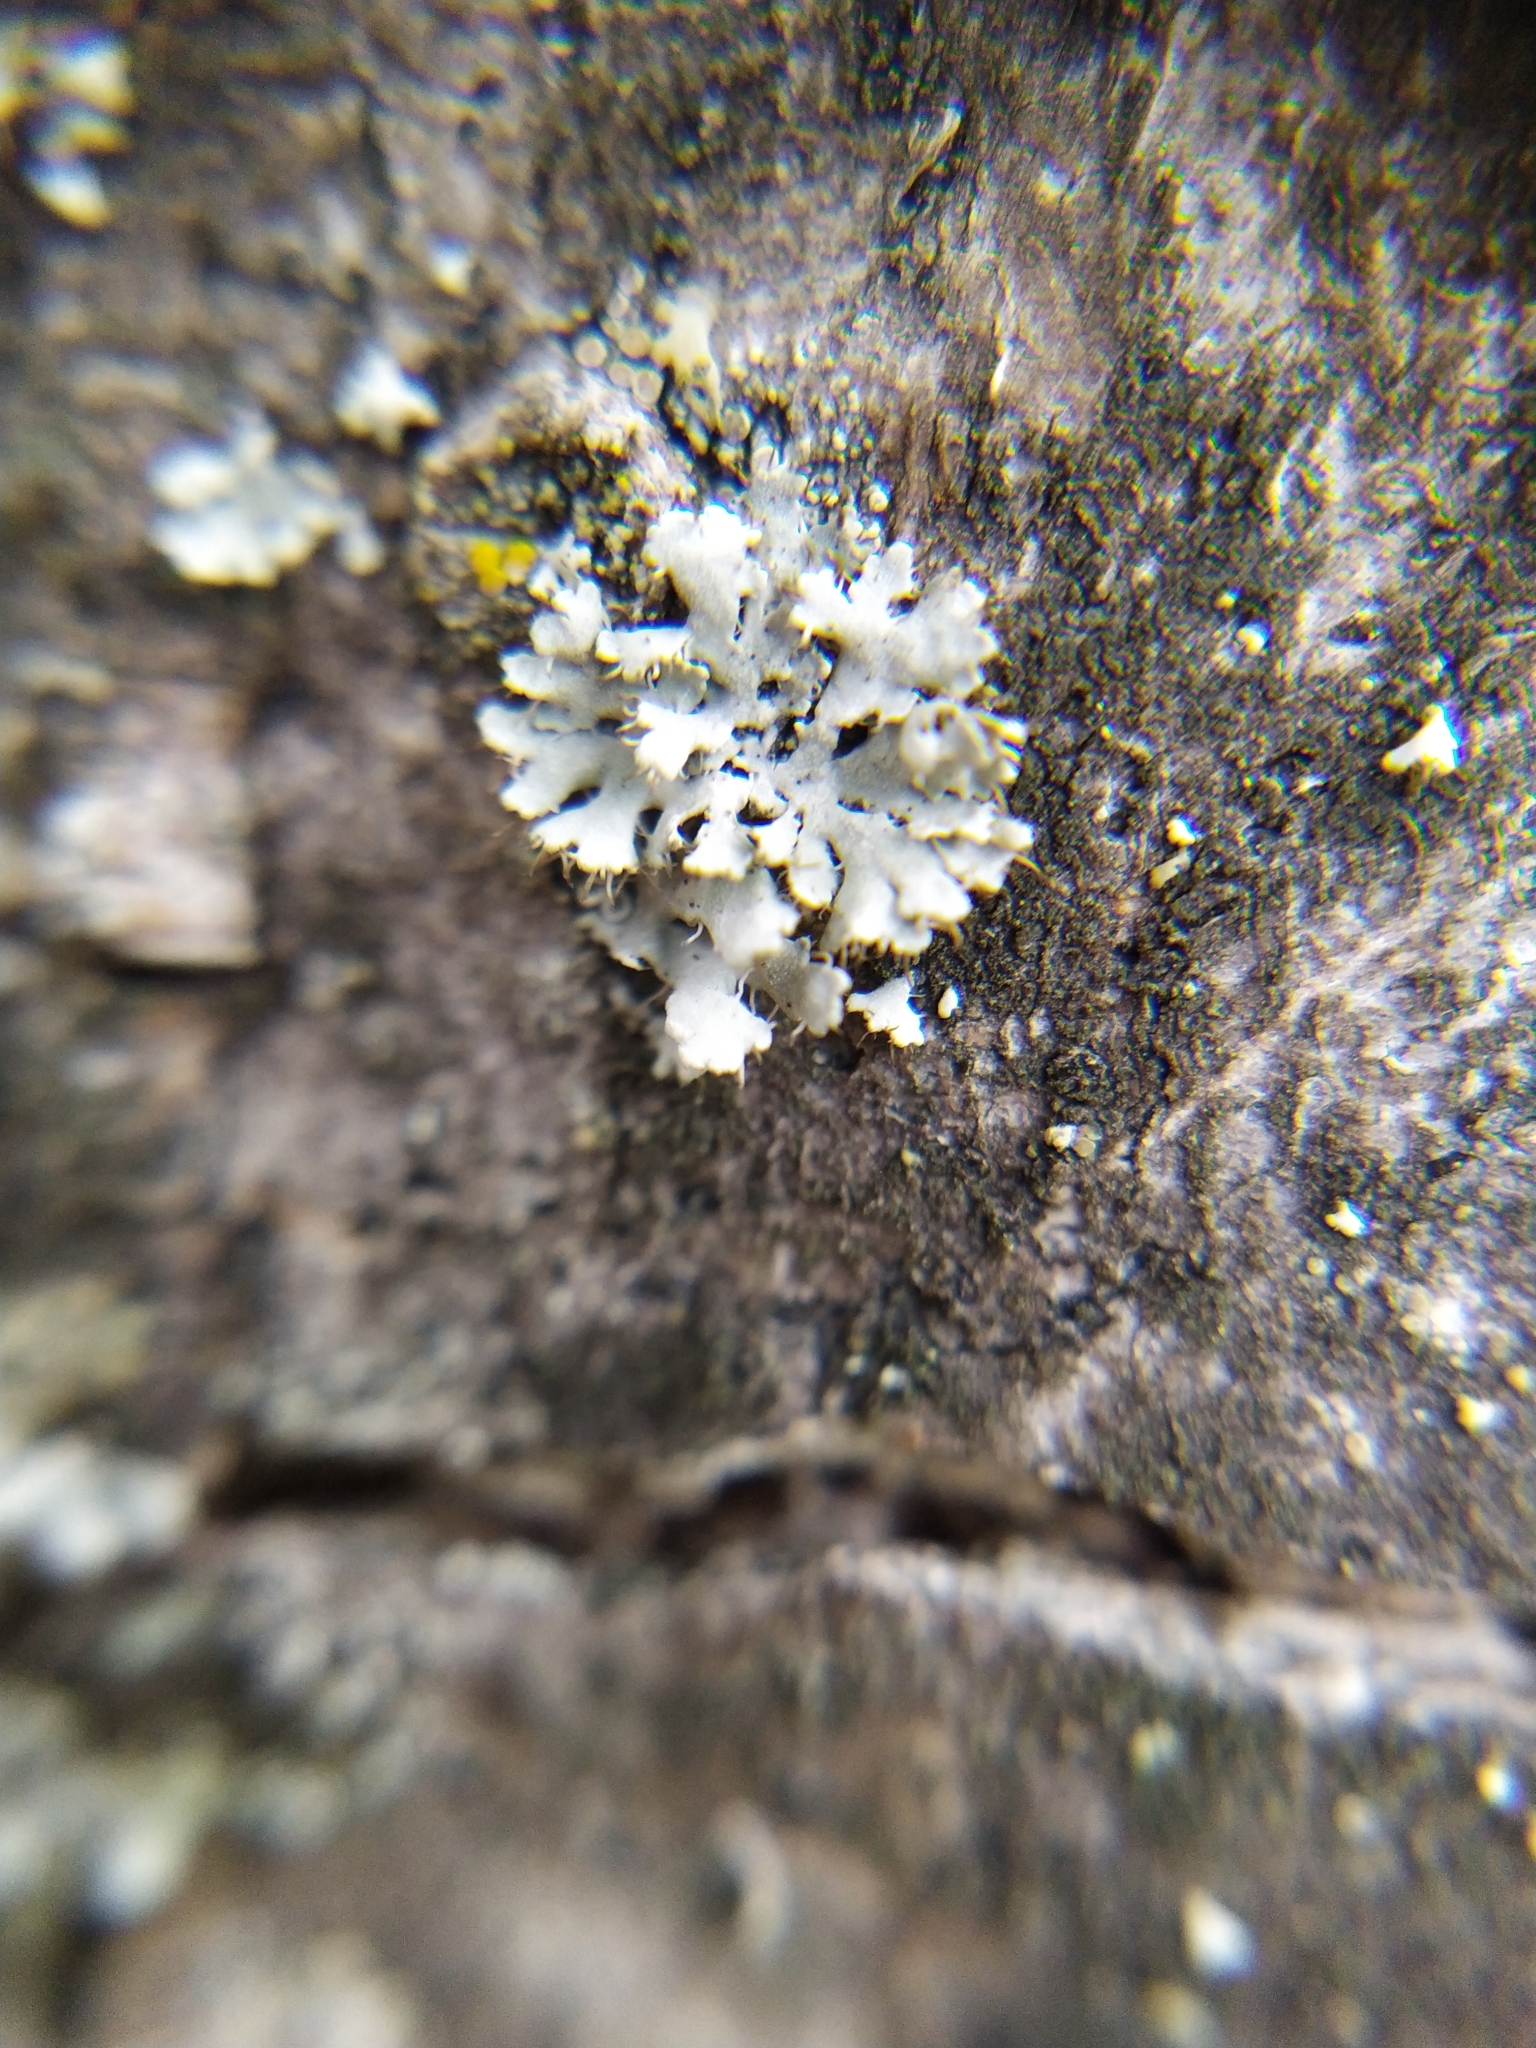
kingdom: Fungi
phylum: Ascomycota
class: Lecanoromycetes
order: Caliciales
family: Physciaceae
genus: Physcia
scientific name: Physcia adscendens
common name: Hooded rosette lichen
